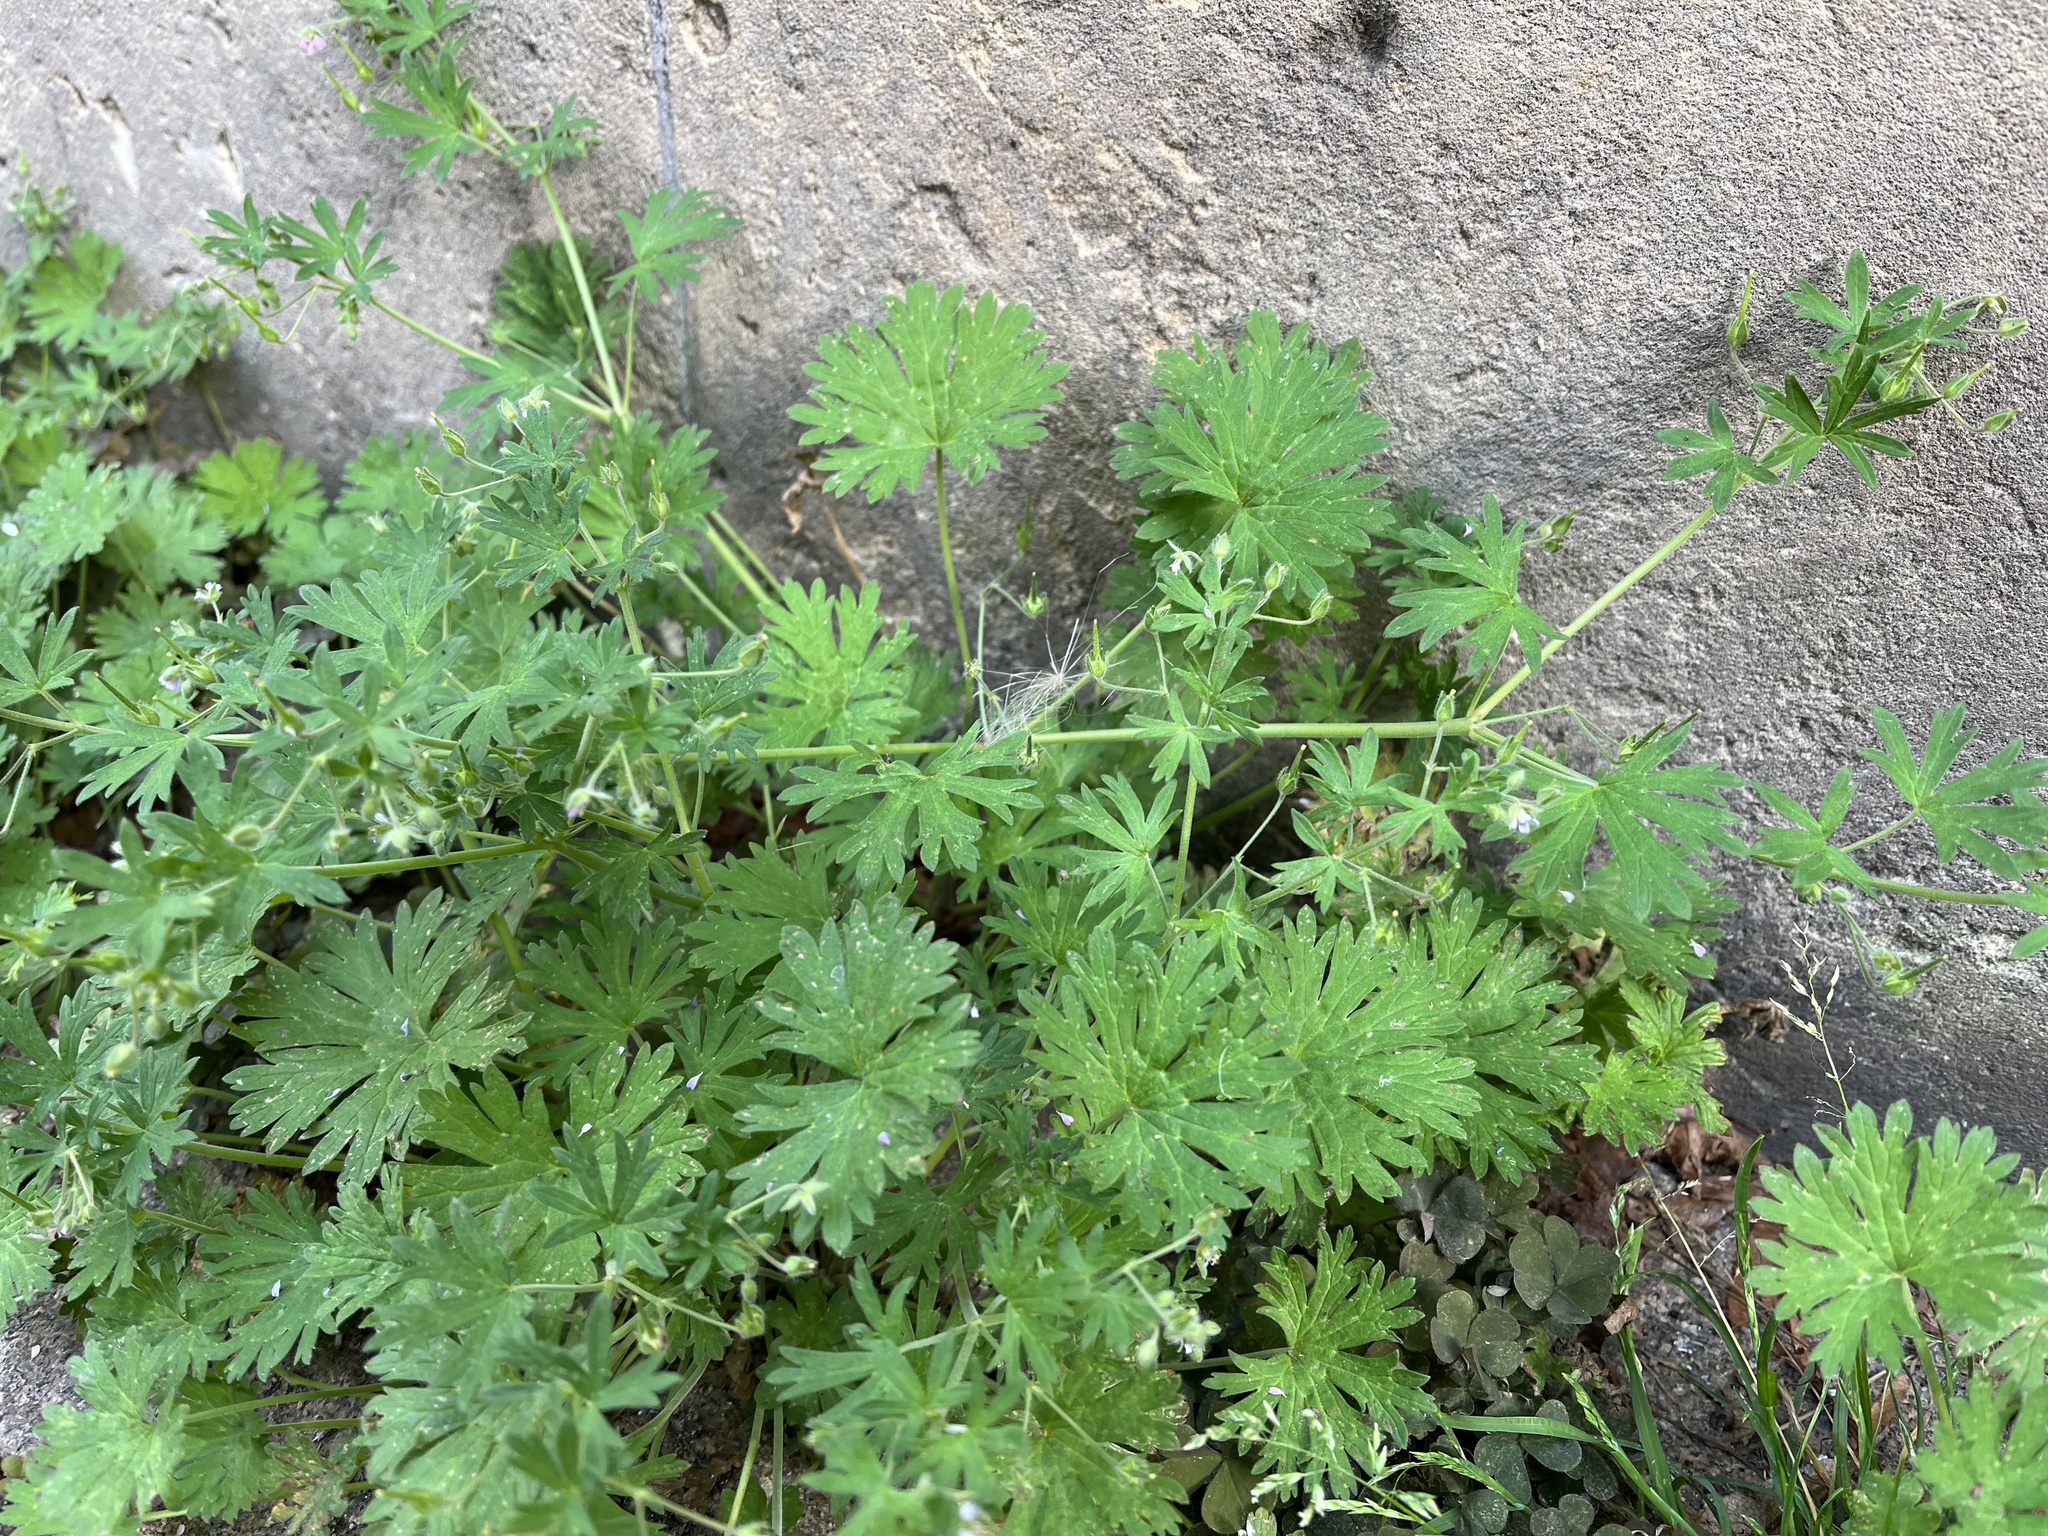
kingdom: Plantae
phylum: Tracheophyta
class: Magnoliopsida
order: Geraniales
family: Geraniaceae
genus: Geranium
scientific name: Geranium pusillum
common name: Small geranium
